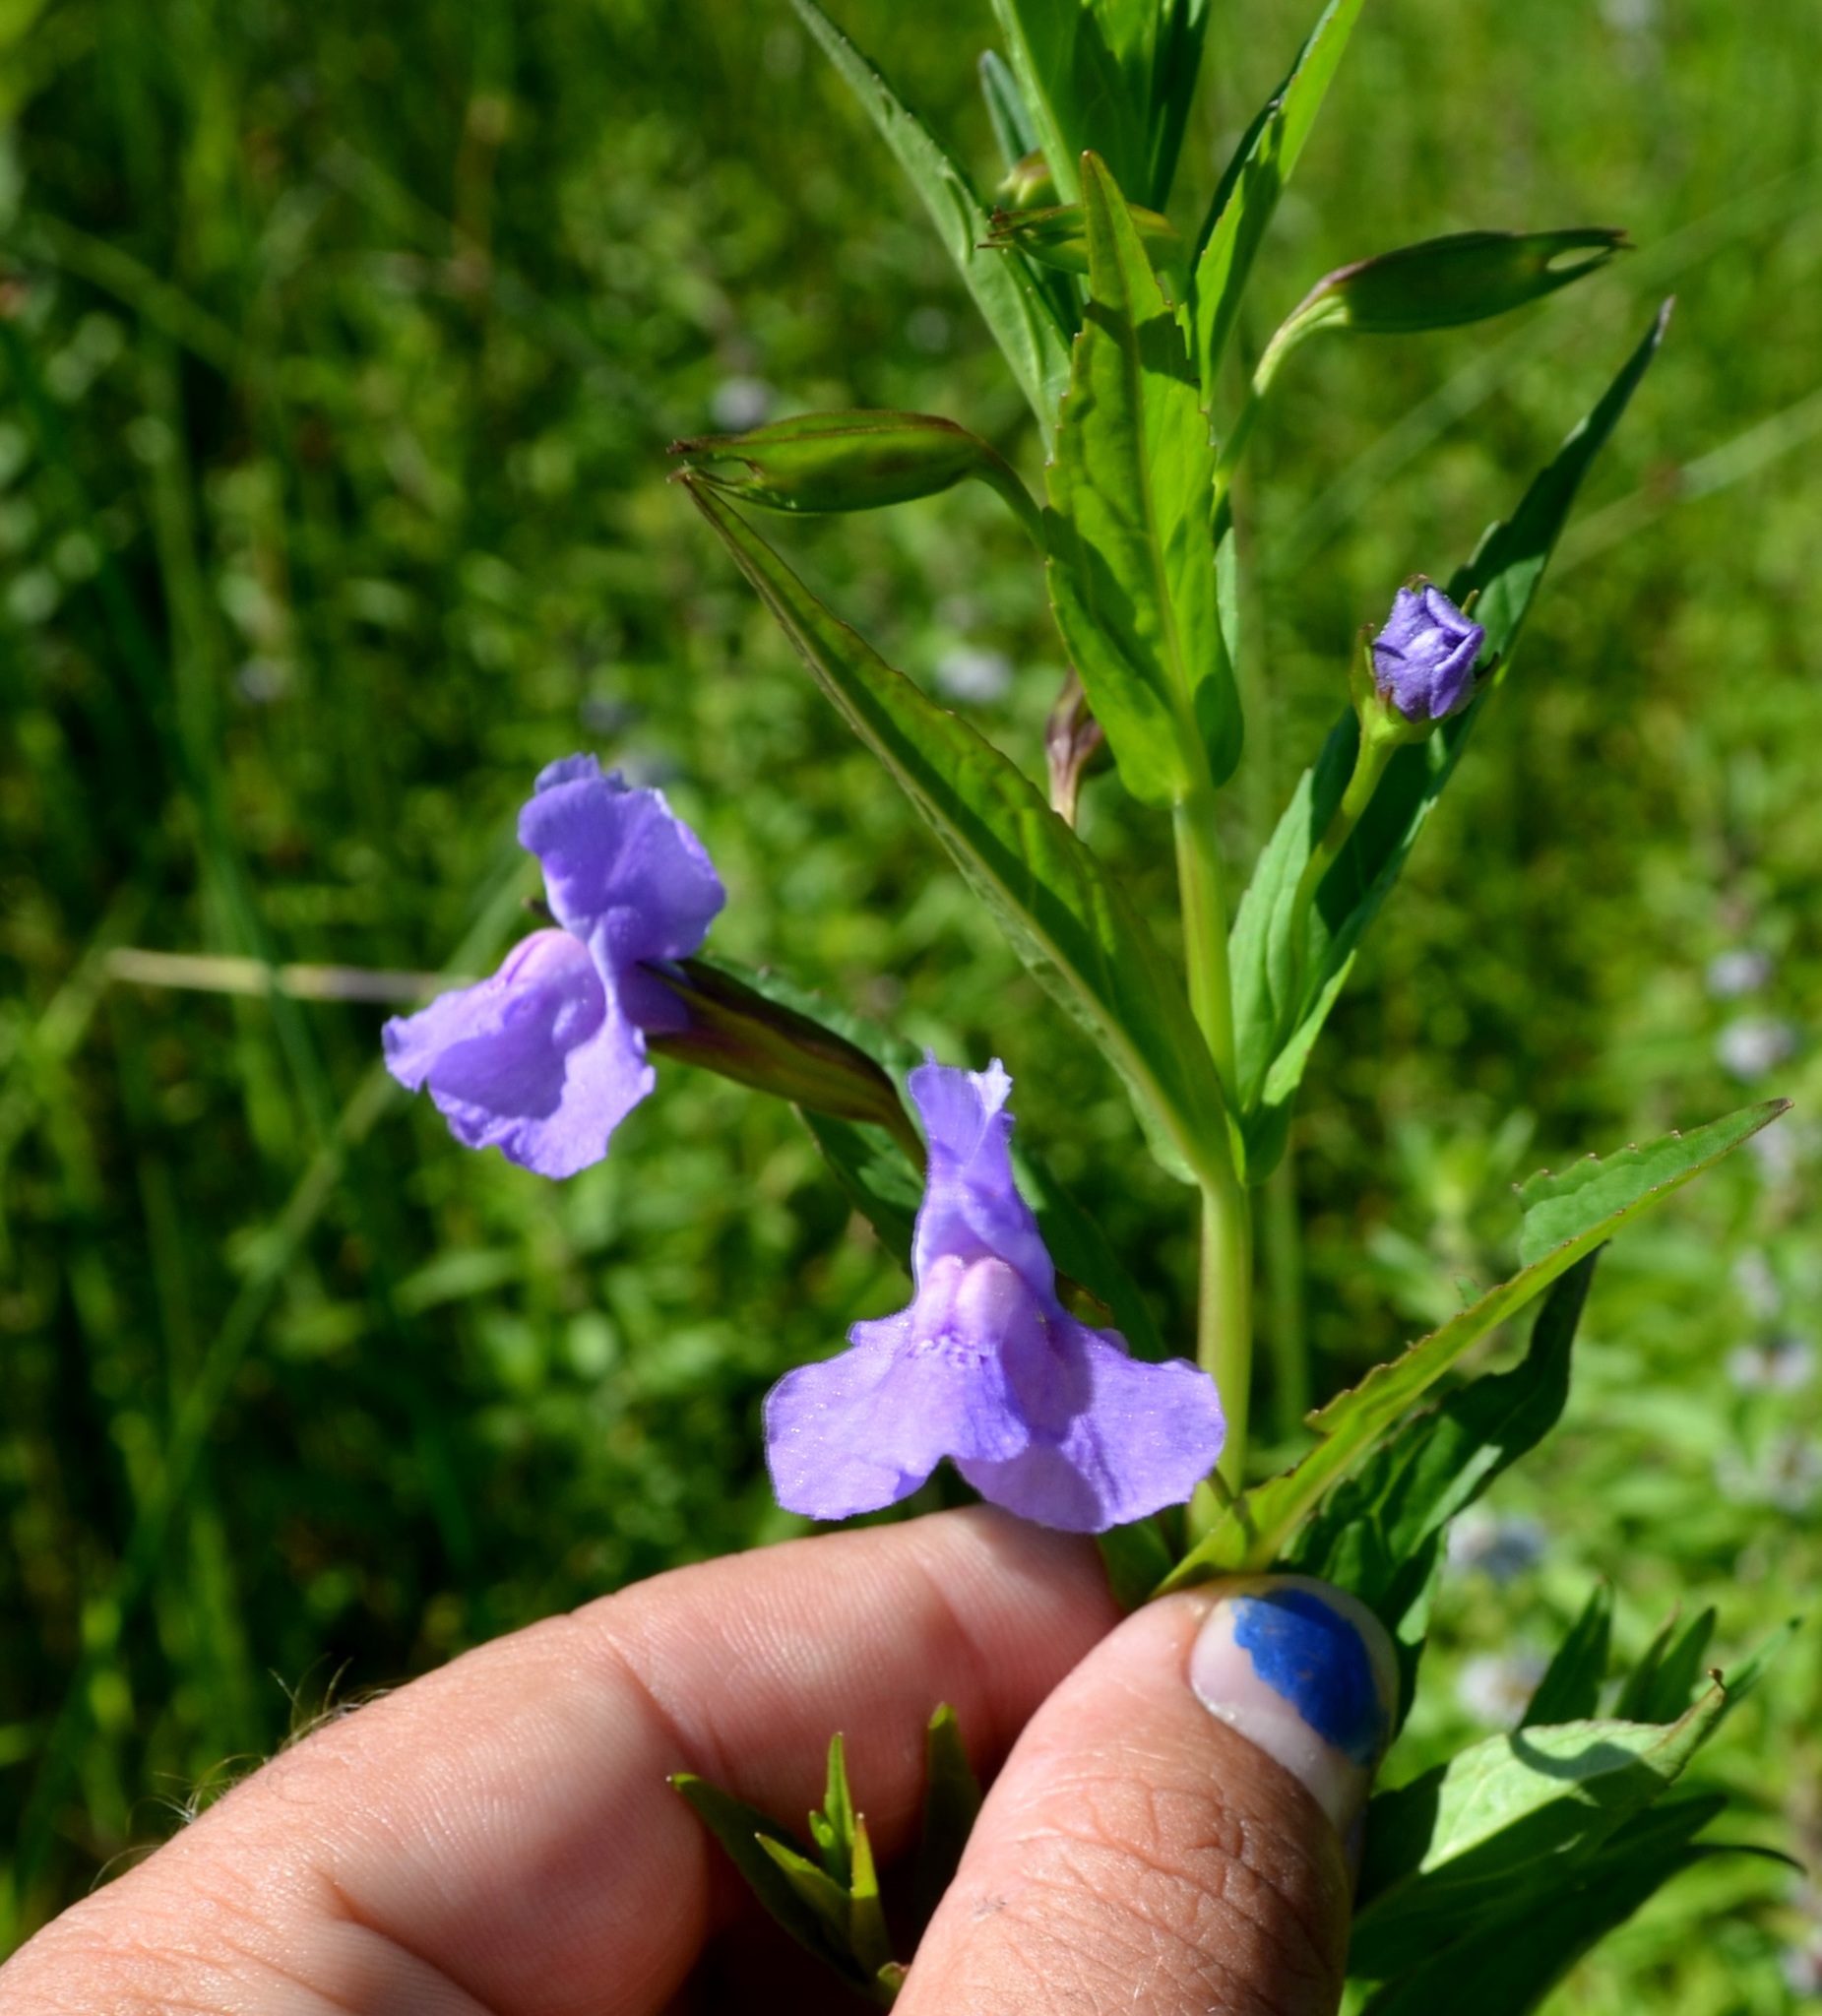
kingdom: Plantae
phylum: Tracheophyta
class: Magnoliopsida
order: Lamiales
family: Phrymaceae
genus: Mimulus
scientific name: Mimulus ringens
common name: Allegheny monkeyflower
